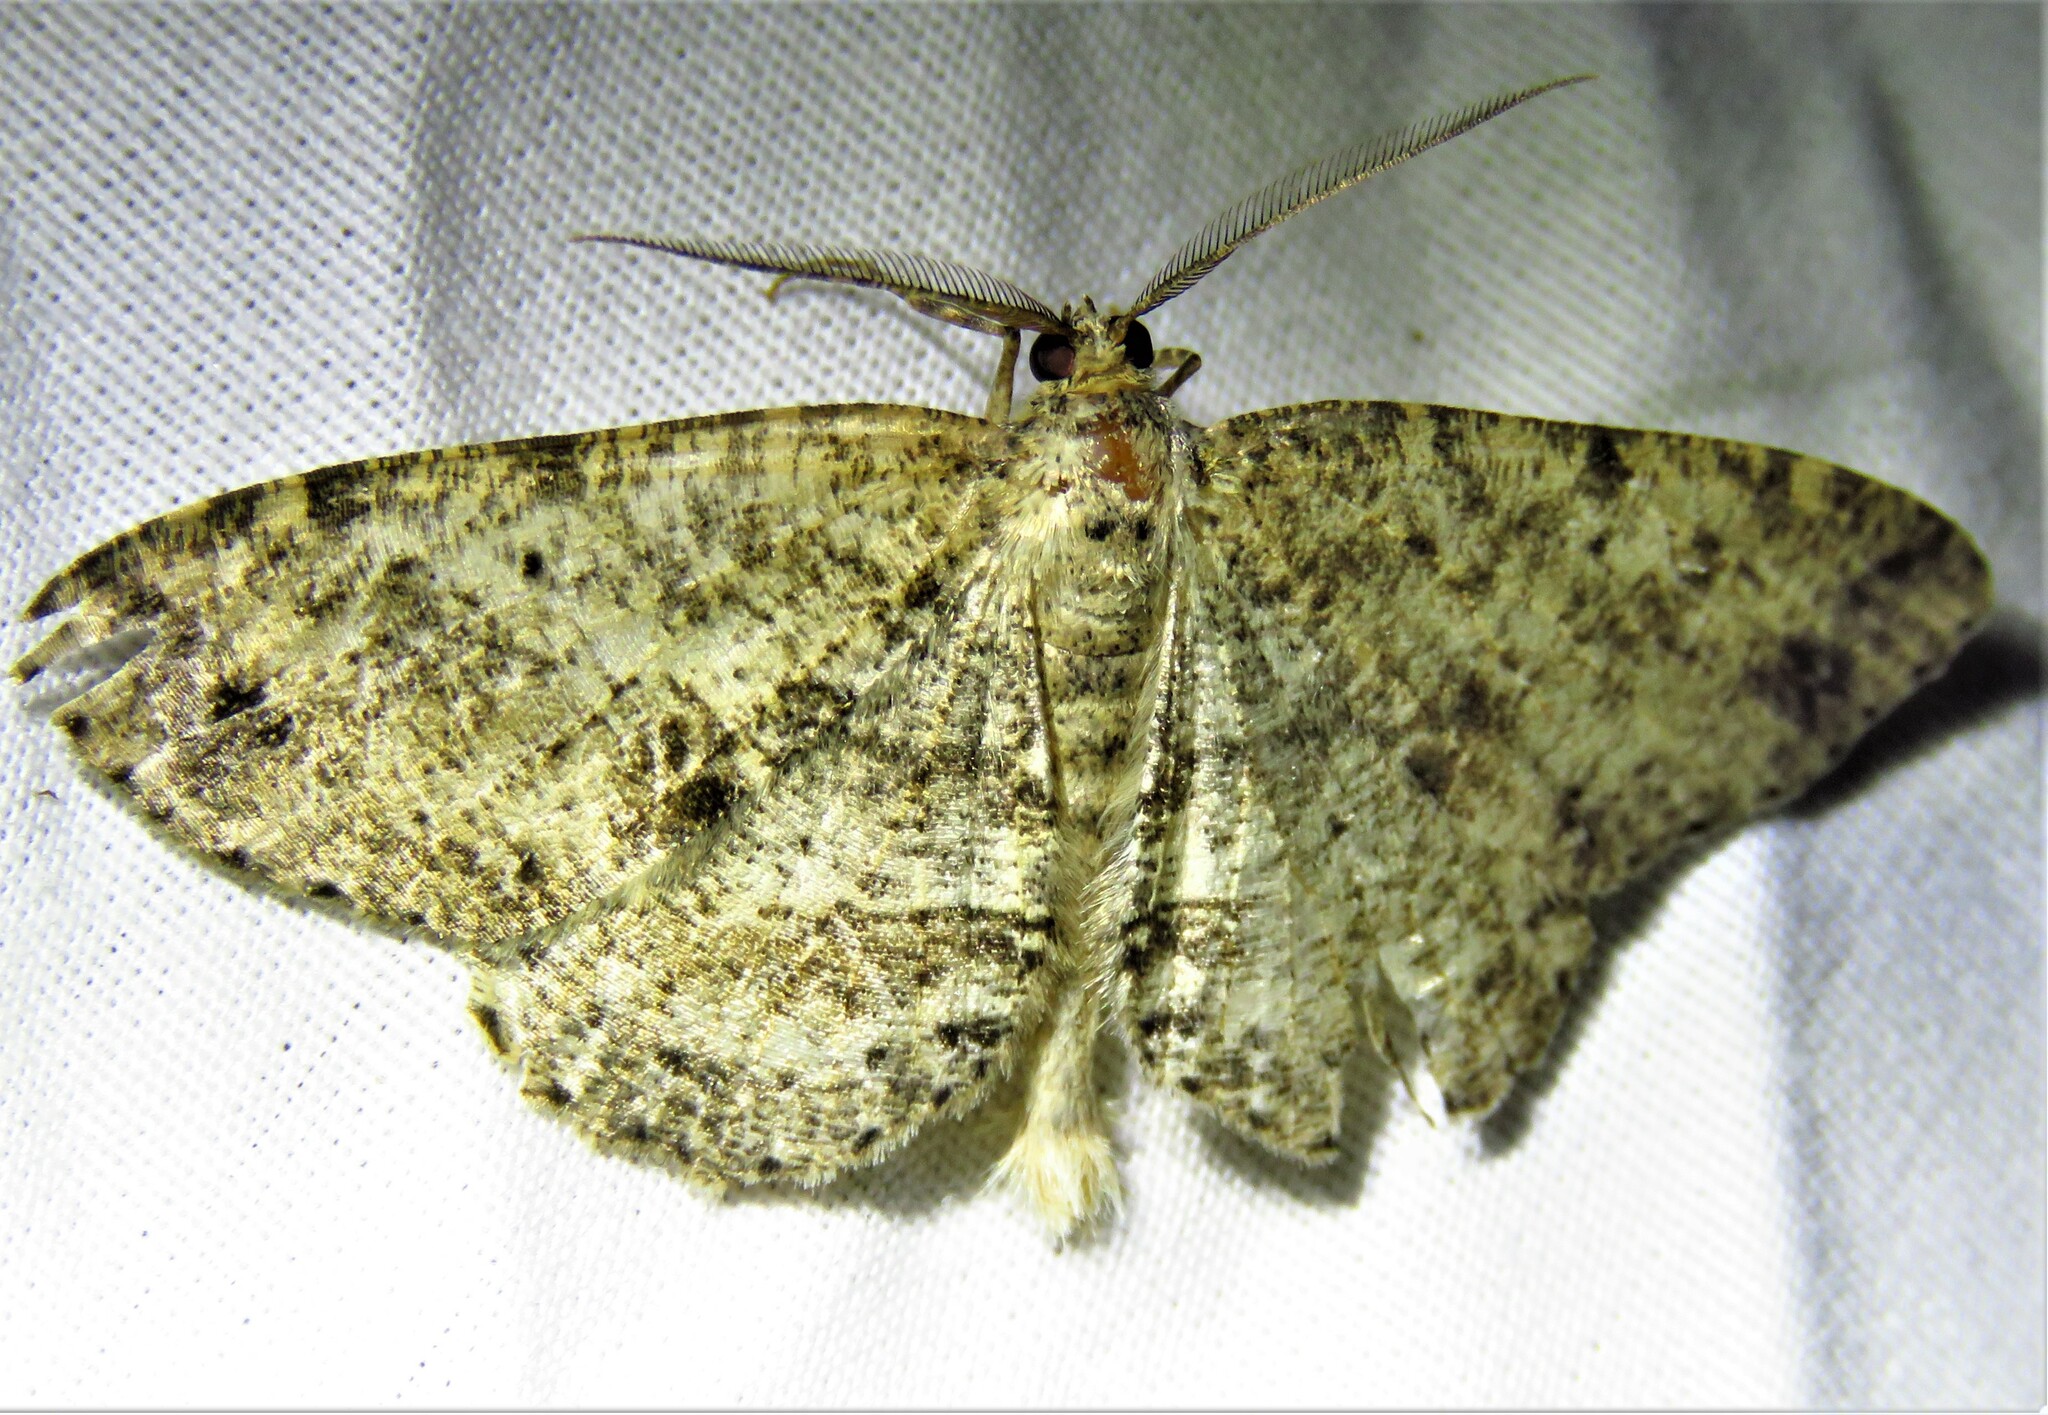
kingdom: Animalia
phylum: Arthropoda
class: Insecta
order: Lepidoptera
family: Geometridae
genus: Melanolophia
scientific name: Melanolophia canadaria
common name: Canadian melanolophia
